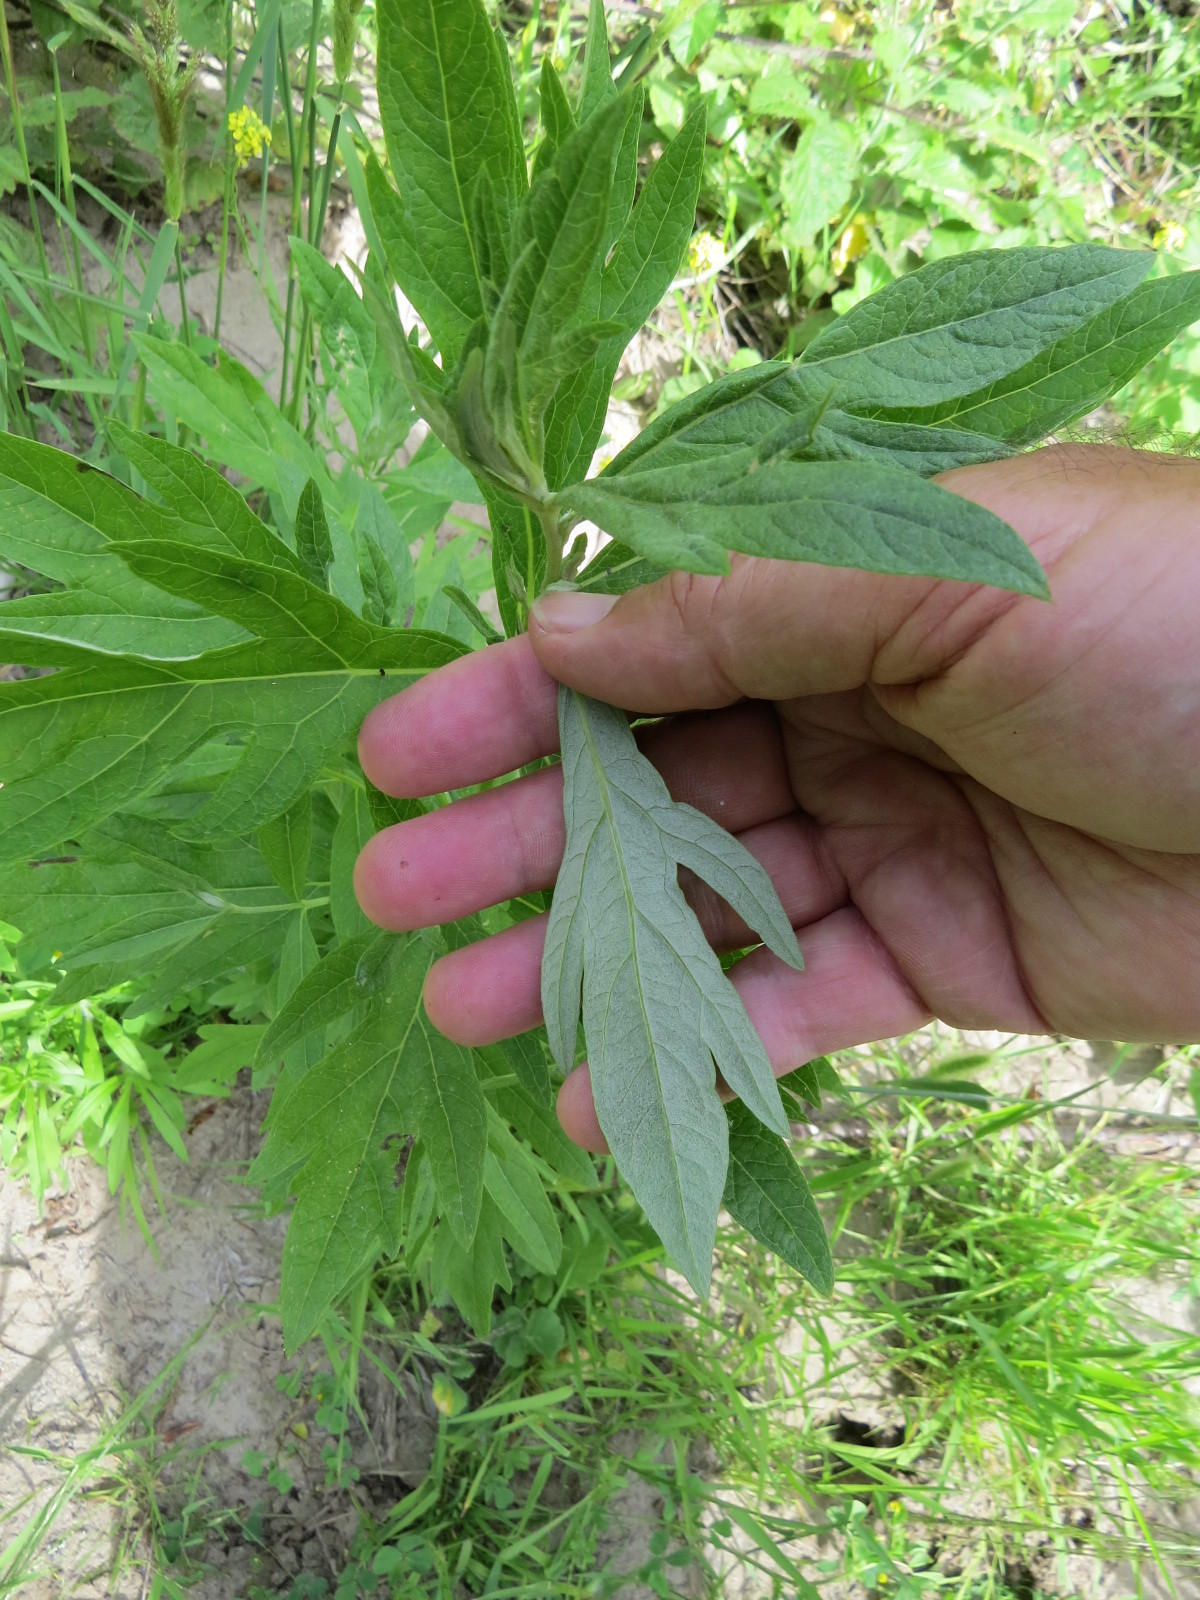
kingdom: Plantae
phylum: Tracheophyta
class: Magnoliopsida
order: Asterales
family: Asteraceae
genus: Artemisia
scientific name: Artemisia douglasiana
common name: Northwest mugwort
